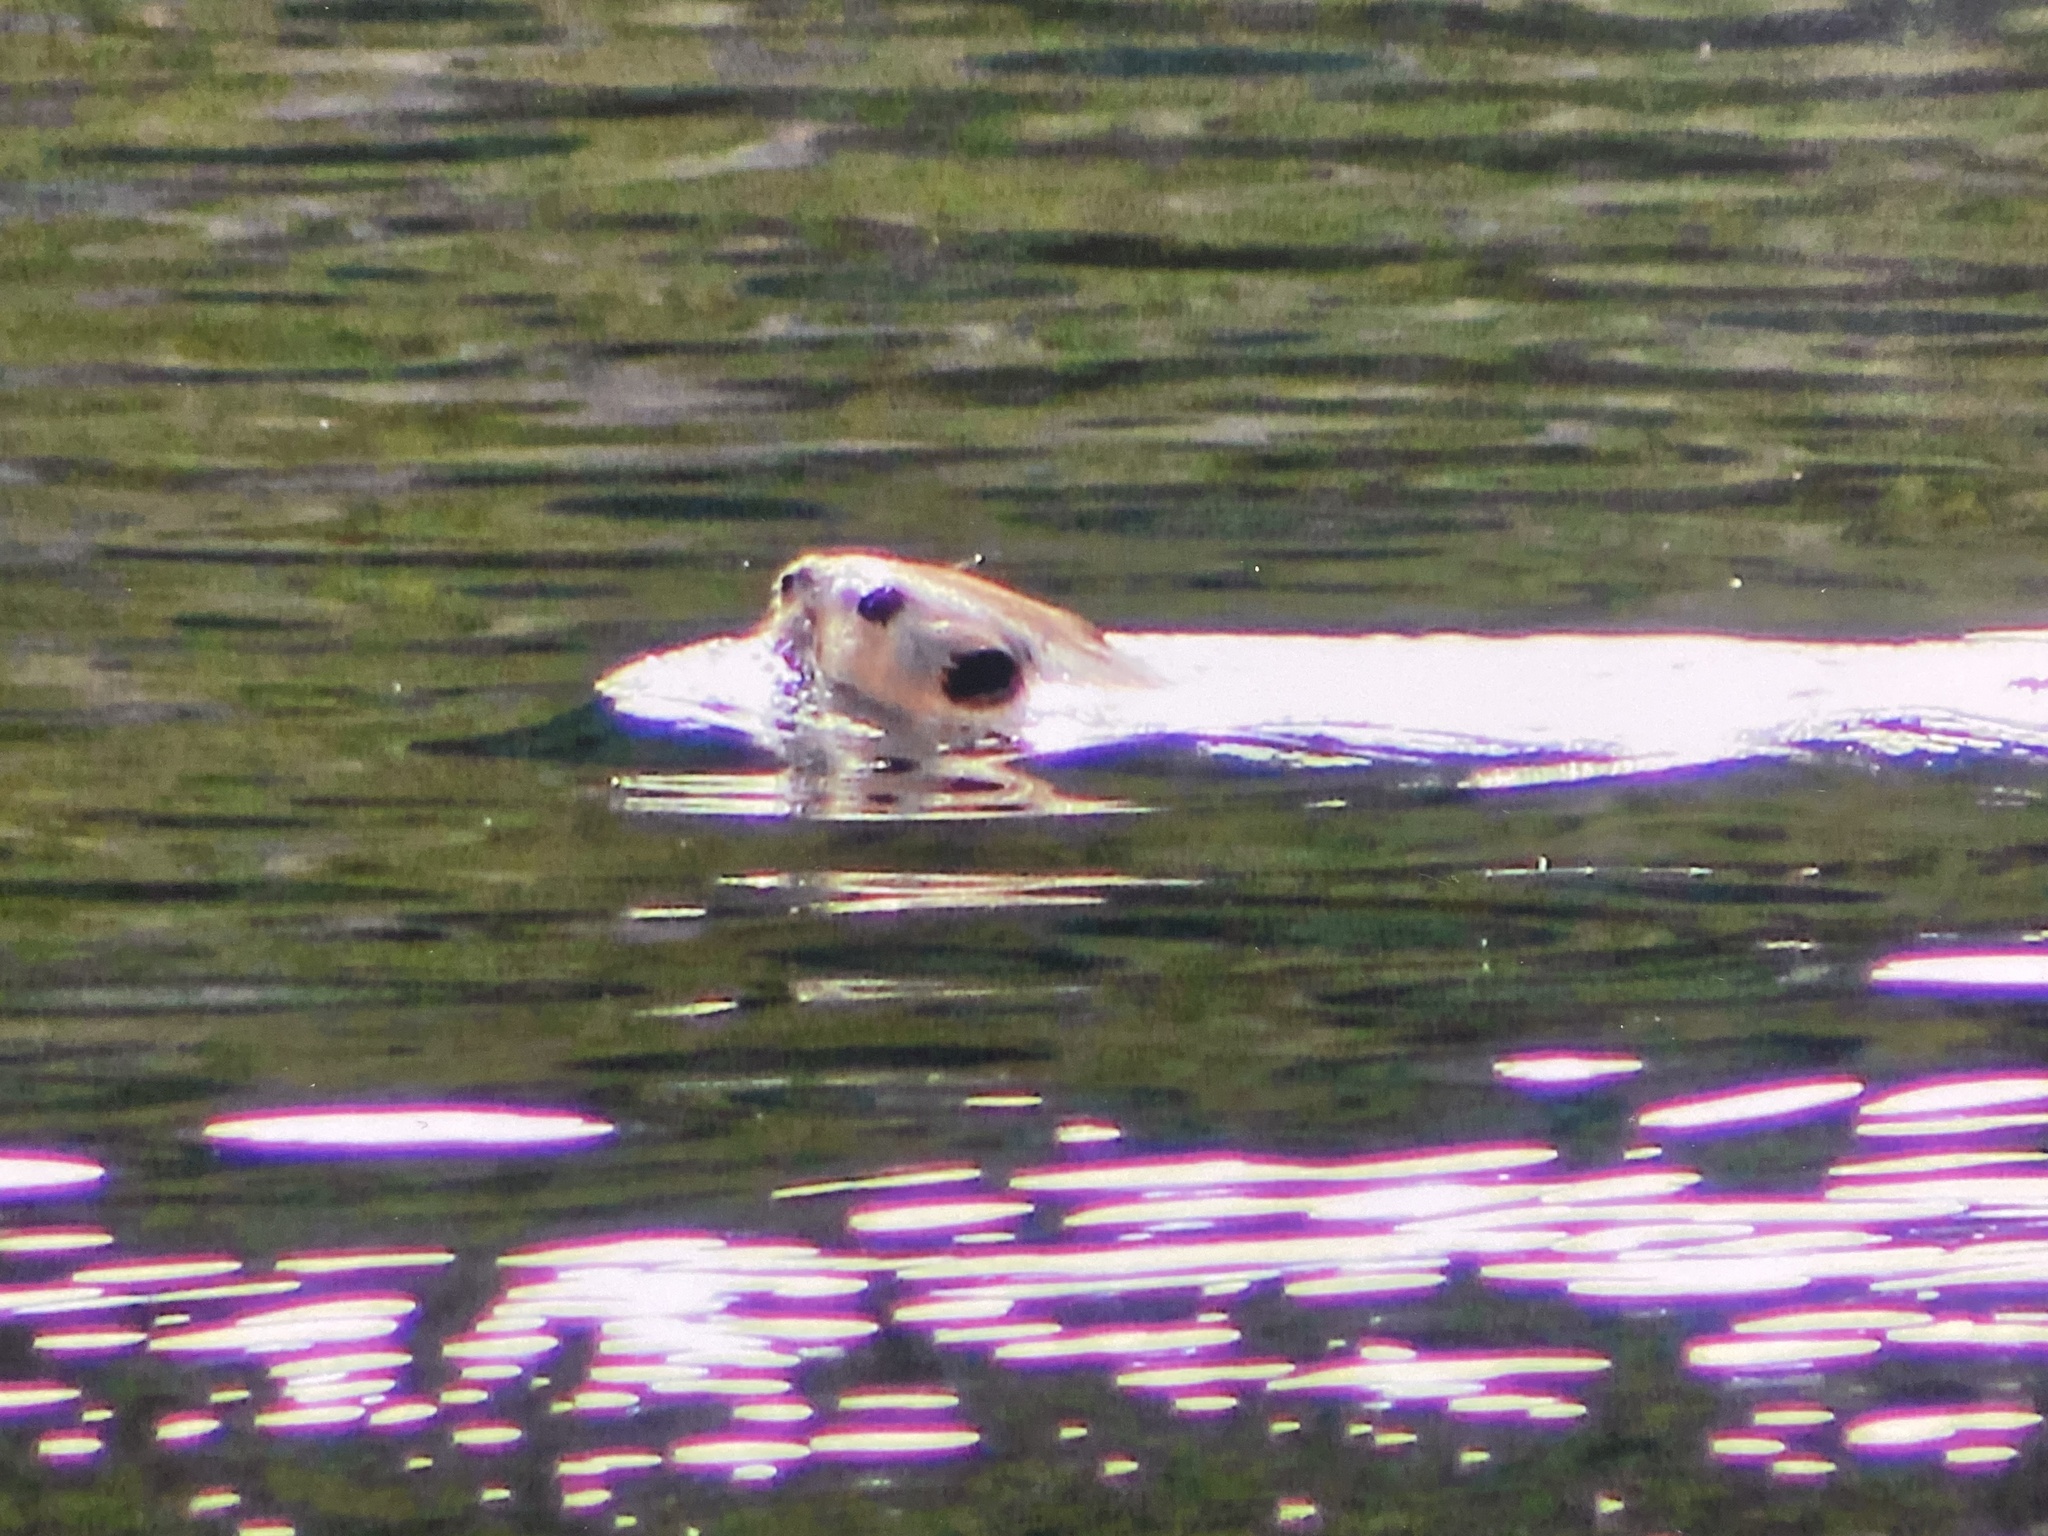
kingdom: Animalia
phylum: Chordata
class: Mammalia
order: Rodentia
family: Castoridae
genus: Castor
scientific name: Castor canadensis
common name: American beaver
